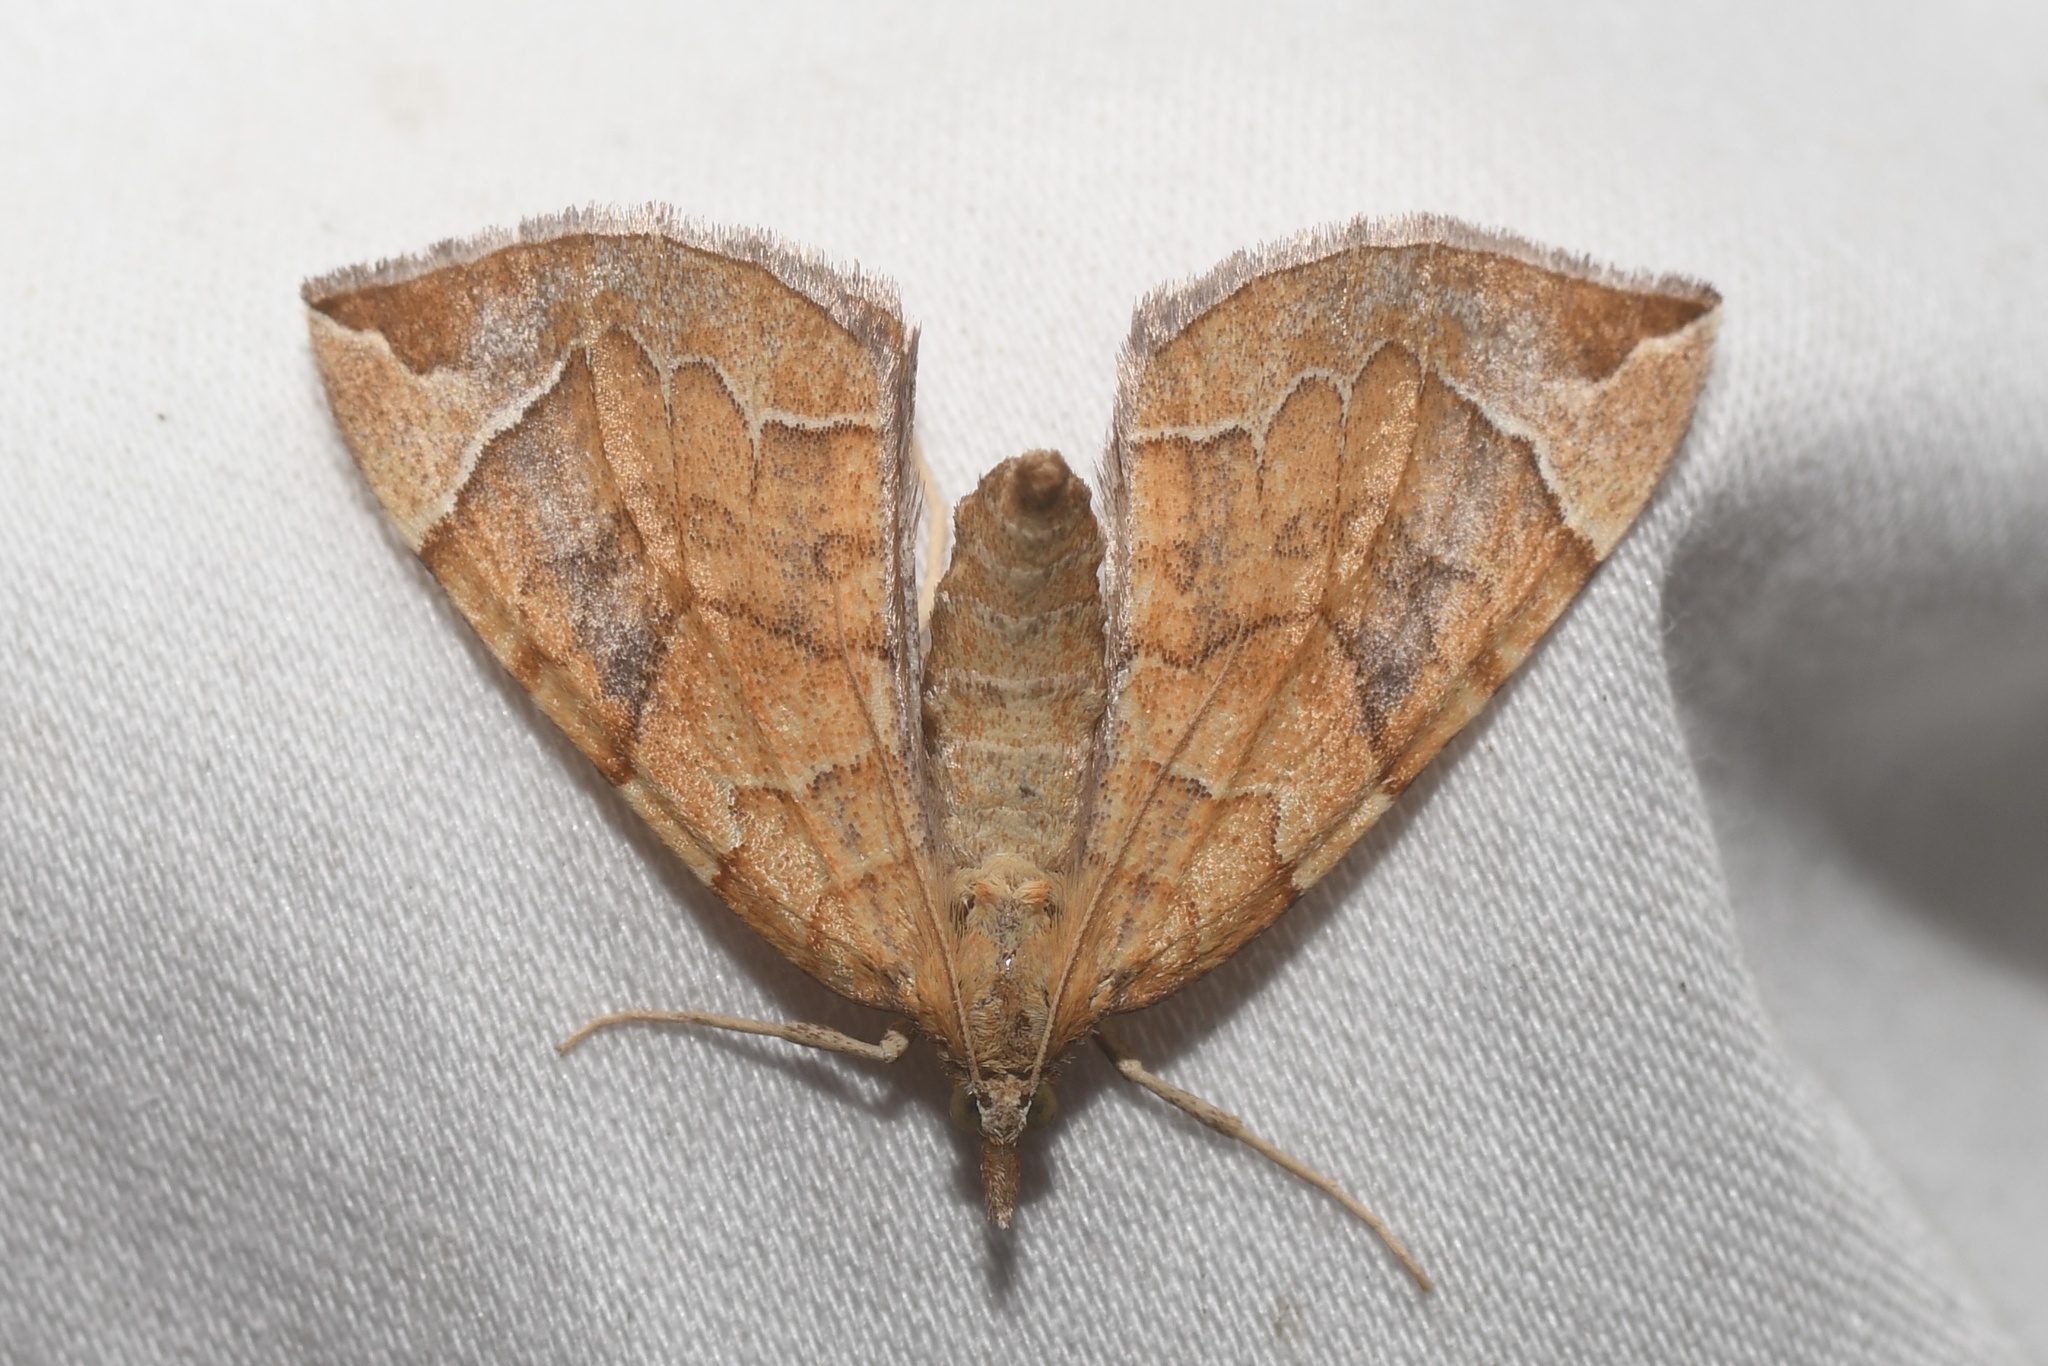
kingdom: Animalia
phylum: Arthropoda
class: Insecta
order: Lepidoptera
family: Geometridae
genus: Eulithis
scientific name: Eulithis testata
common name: Chevron
